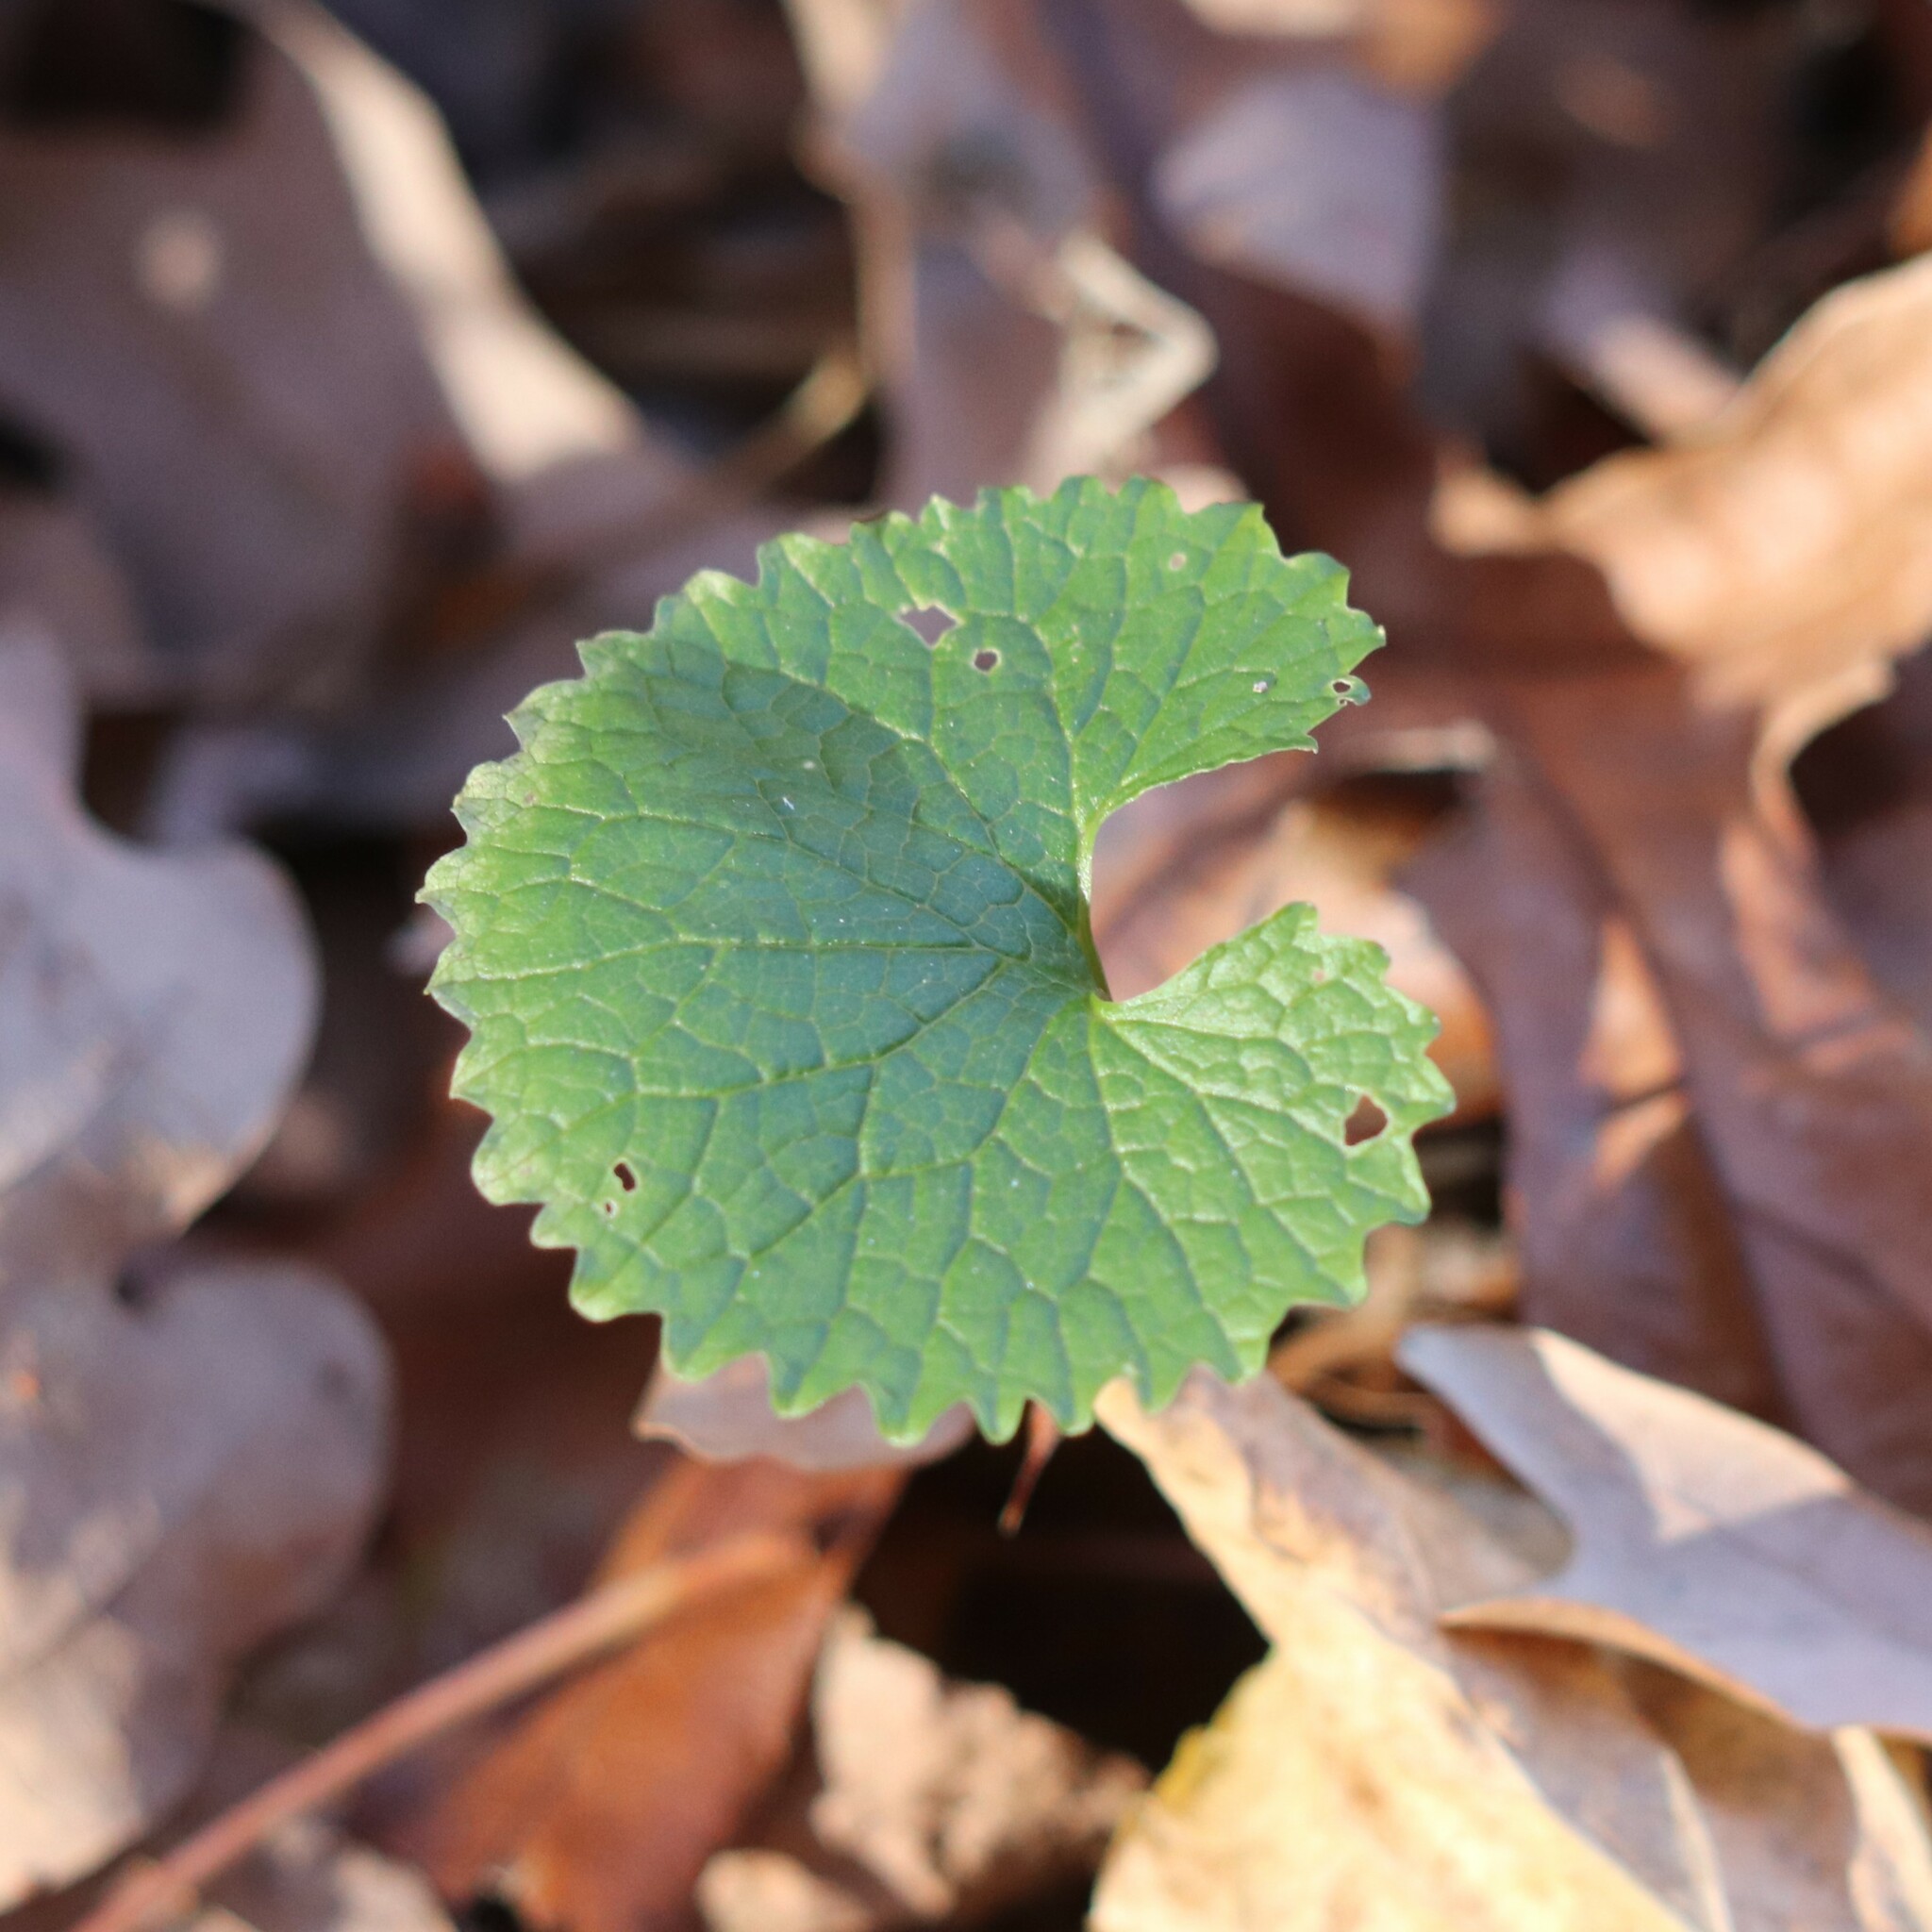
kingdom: Plantae
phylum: Tracheophyta
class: Magnoliopsida
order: Brassicales
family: Brassicaceae
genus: Alliaria
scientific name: Alliaria petiolata
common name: Garlic mustard
